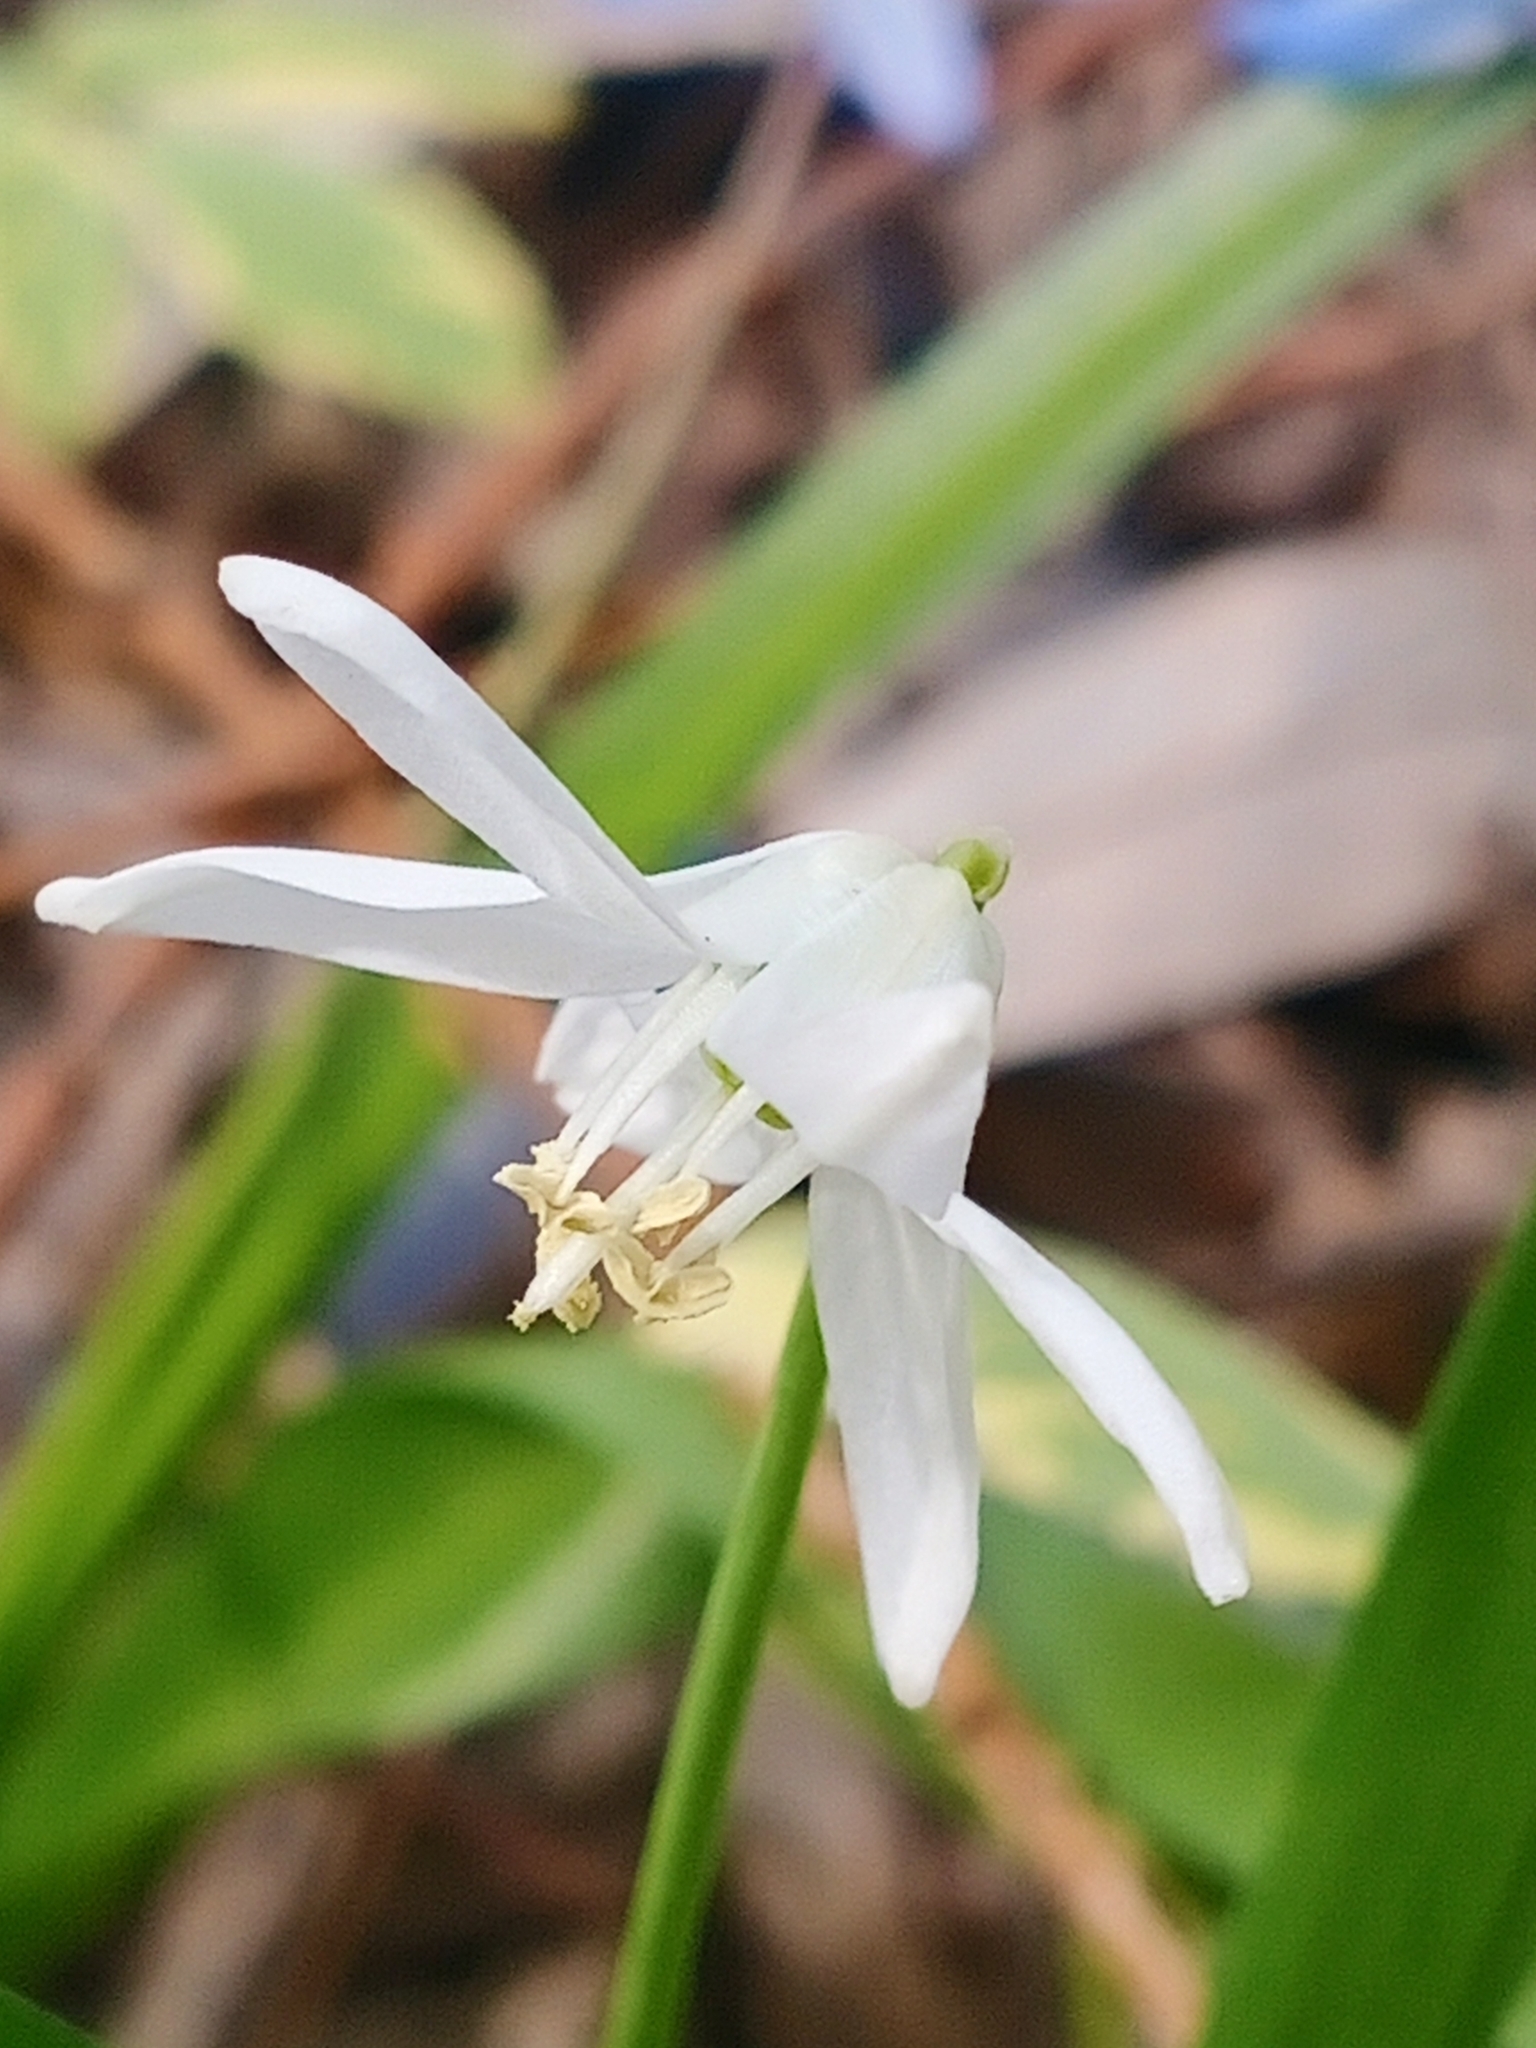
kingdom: Plantae
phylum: Tracheophyta
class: Liliopsida
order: Asparagales
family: Asparagaceae
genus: Scilla
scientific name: Scilla siberica
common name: Siberian squill
